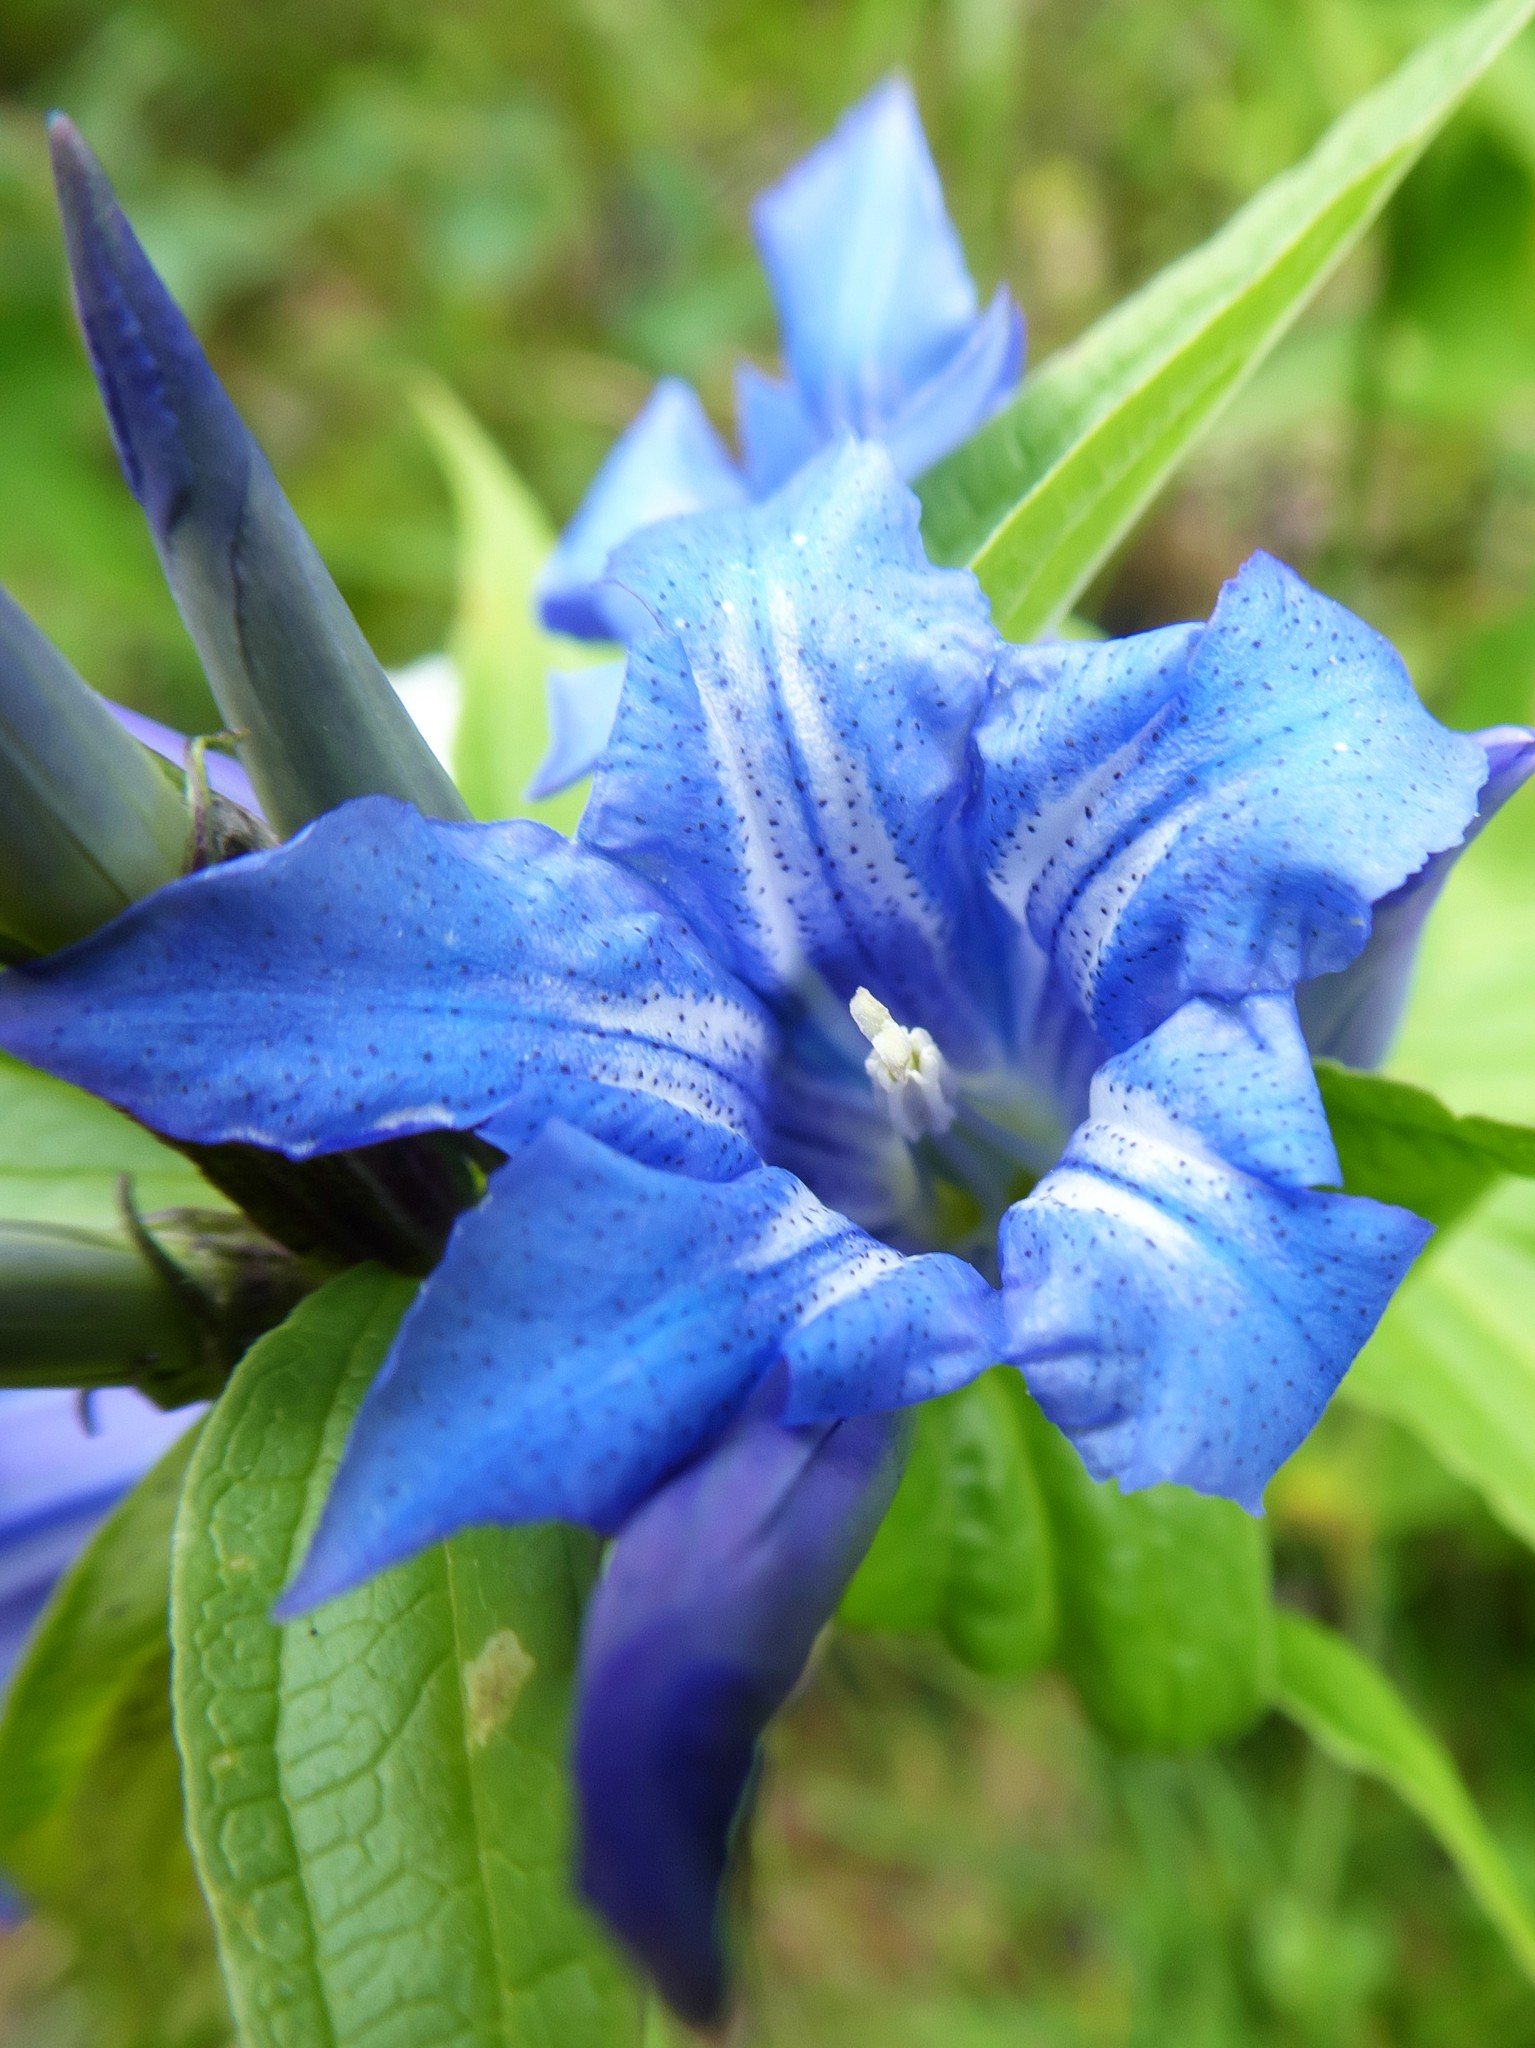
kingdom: Plantae
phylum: Tracheophyta
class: Magnoliopsida
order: Gentianales
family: Gentianaceae
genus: Gentiana
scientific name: Gentiana asclepiadea
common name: Willow gentian
